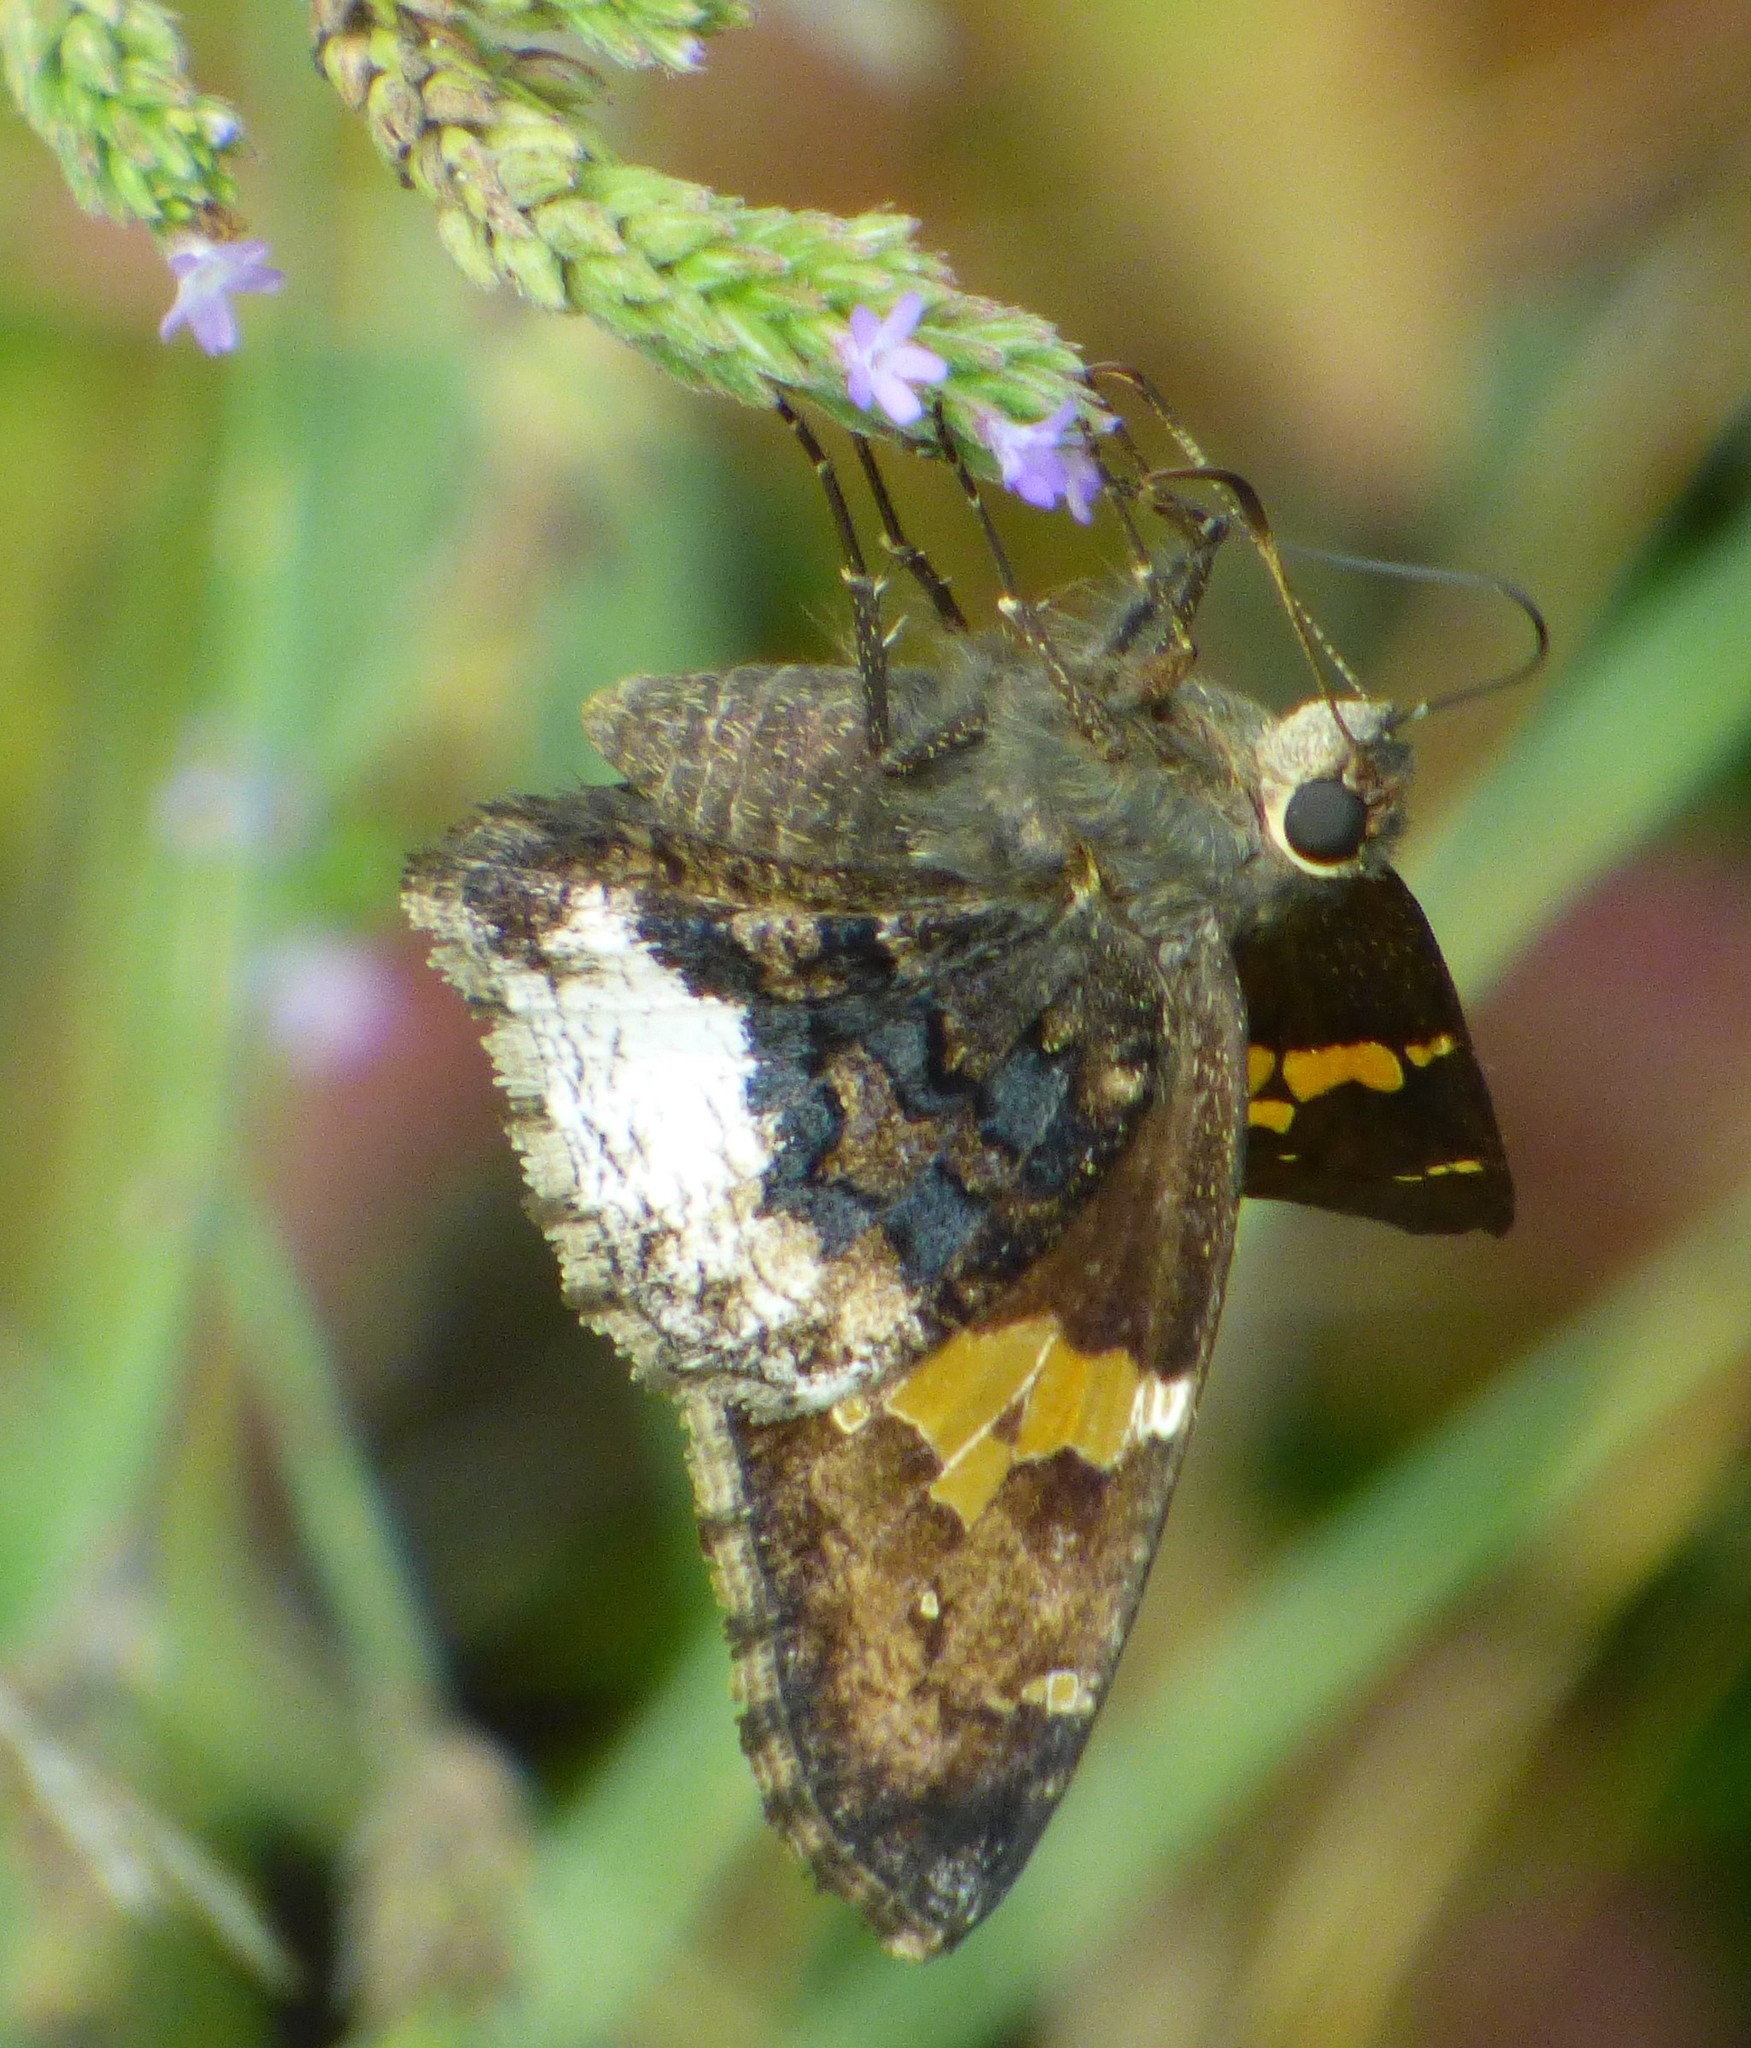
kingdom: Animalia
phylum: Arthropoda
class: Insecta
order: Lepidoptera
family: Hesperiidae
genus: Thorybes
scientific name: Thorybes lyciades
